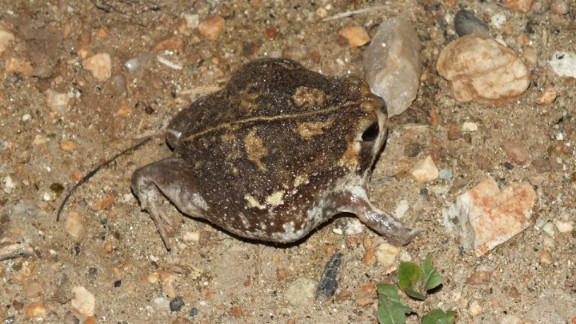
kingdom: Animalia
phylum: Chordata
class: Amphibia
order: Anura
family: Brevicipitidae
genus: Breviceps
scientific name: Breviceps adspersus
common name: Common rain frog
